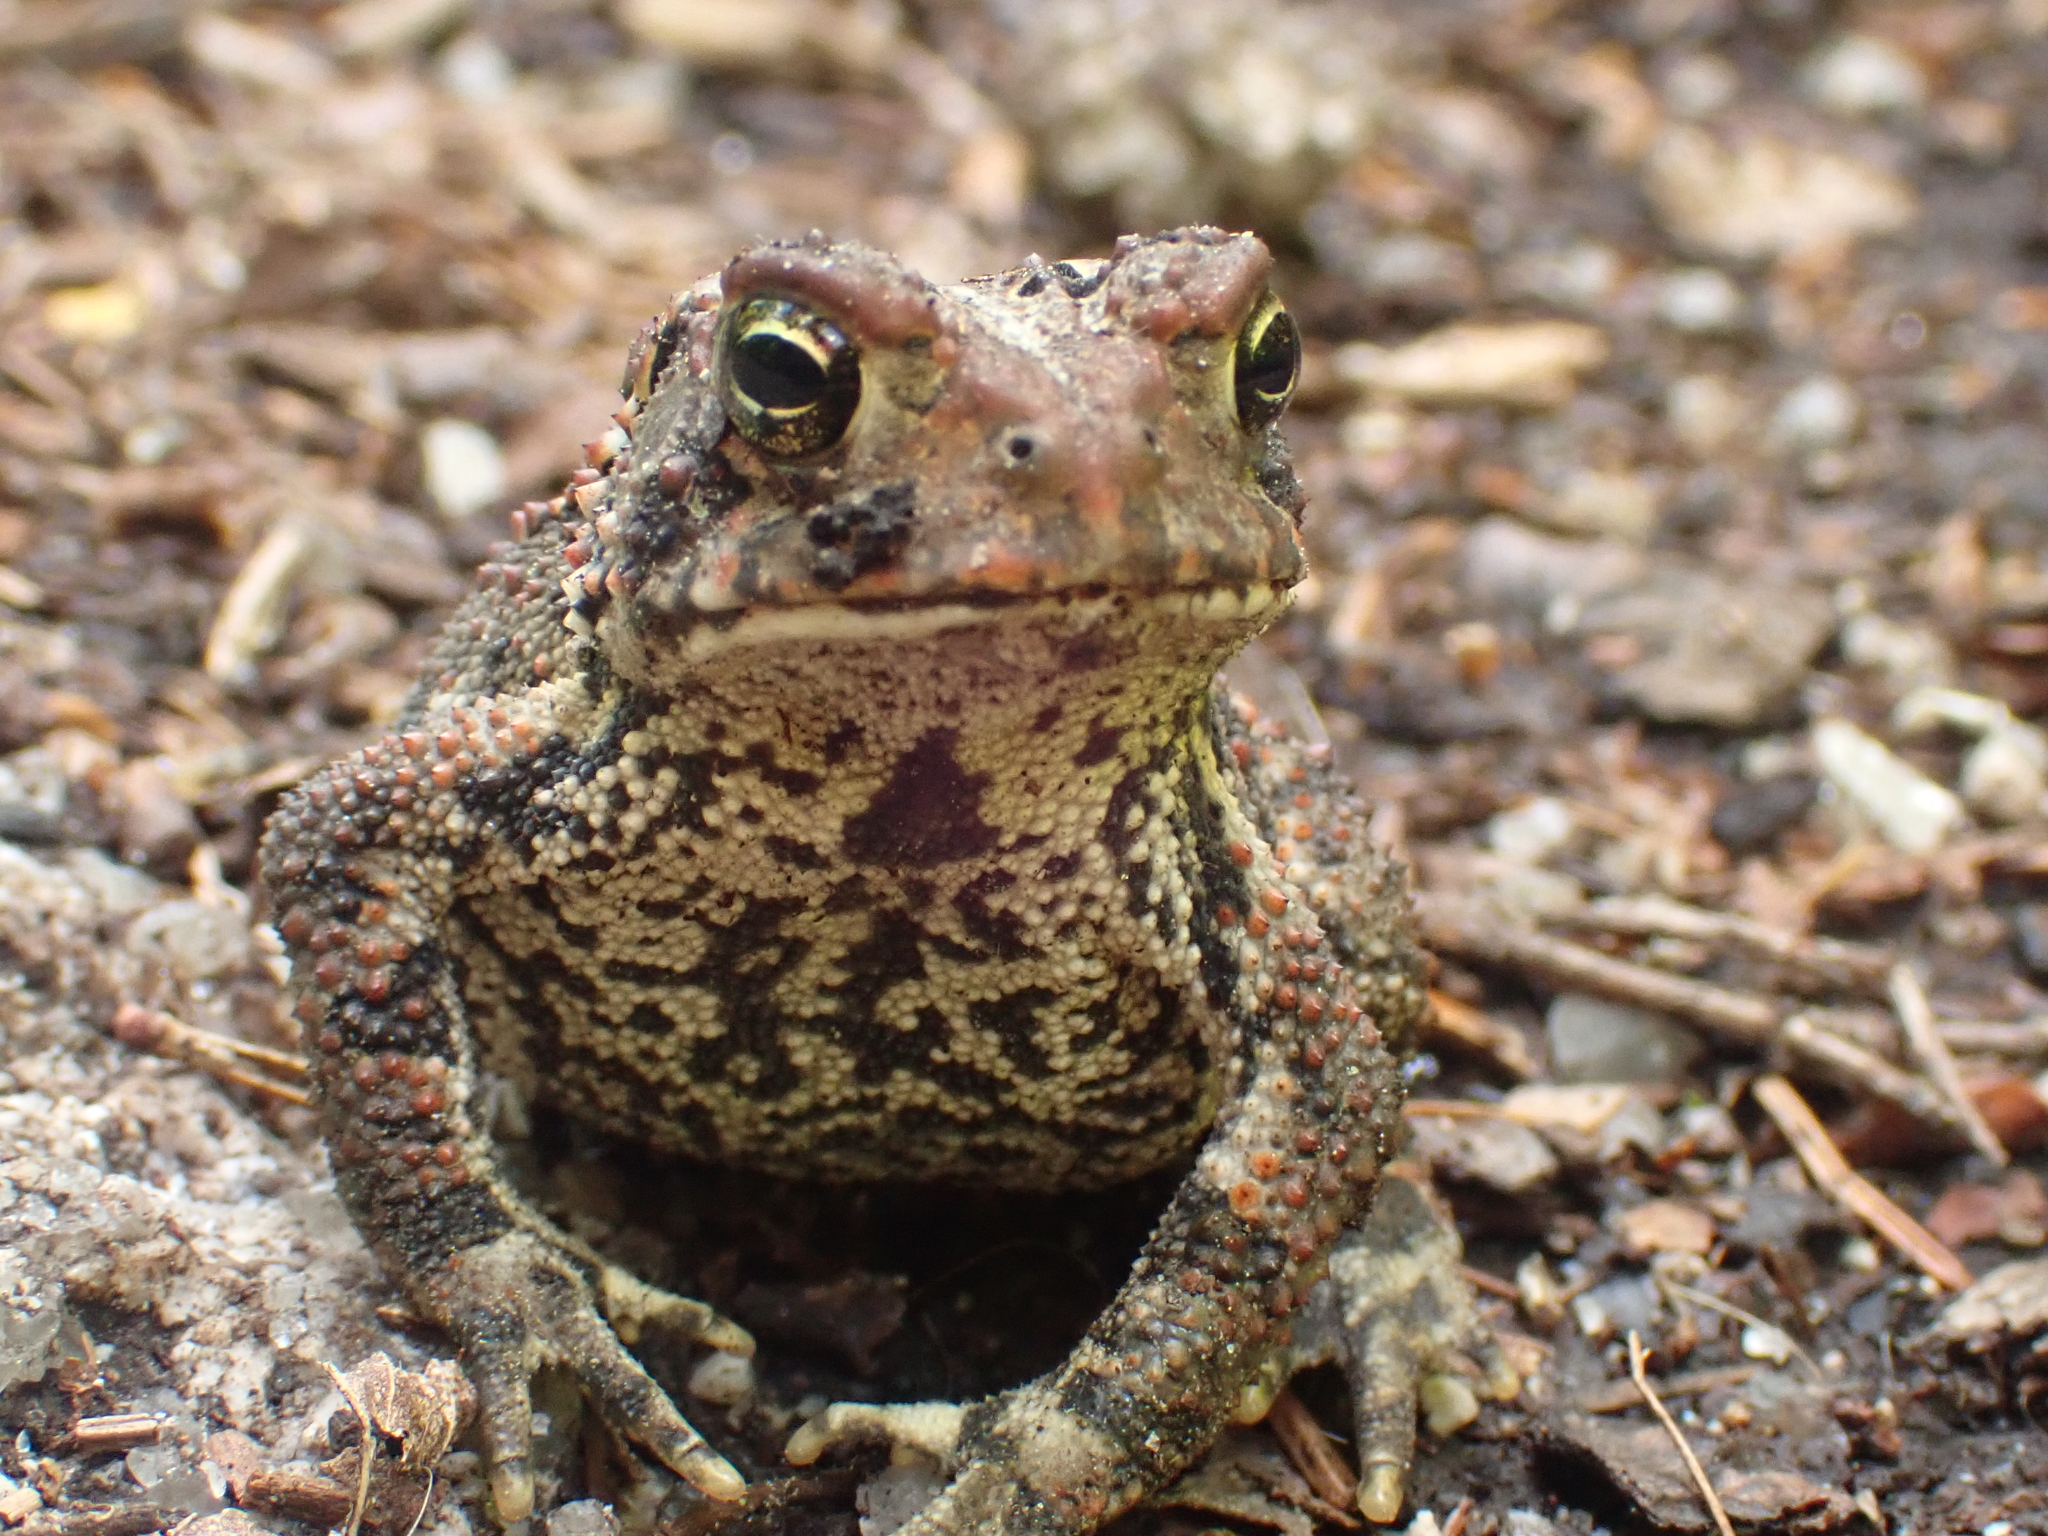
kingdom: Animalia
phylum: Chordata
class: Amphibia
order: Anura
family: Bufonidae
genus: Anaxyrus
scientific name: Anaxyrus americanus
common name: American toad
